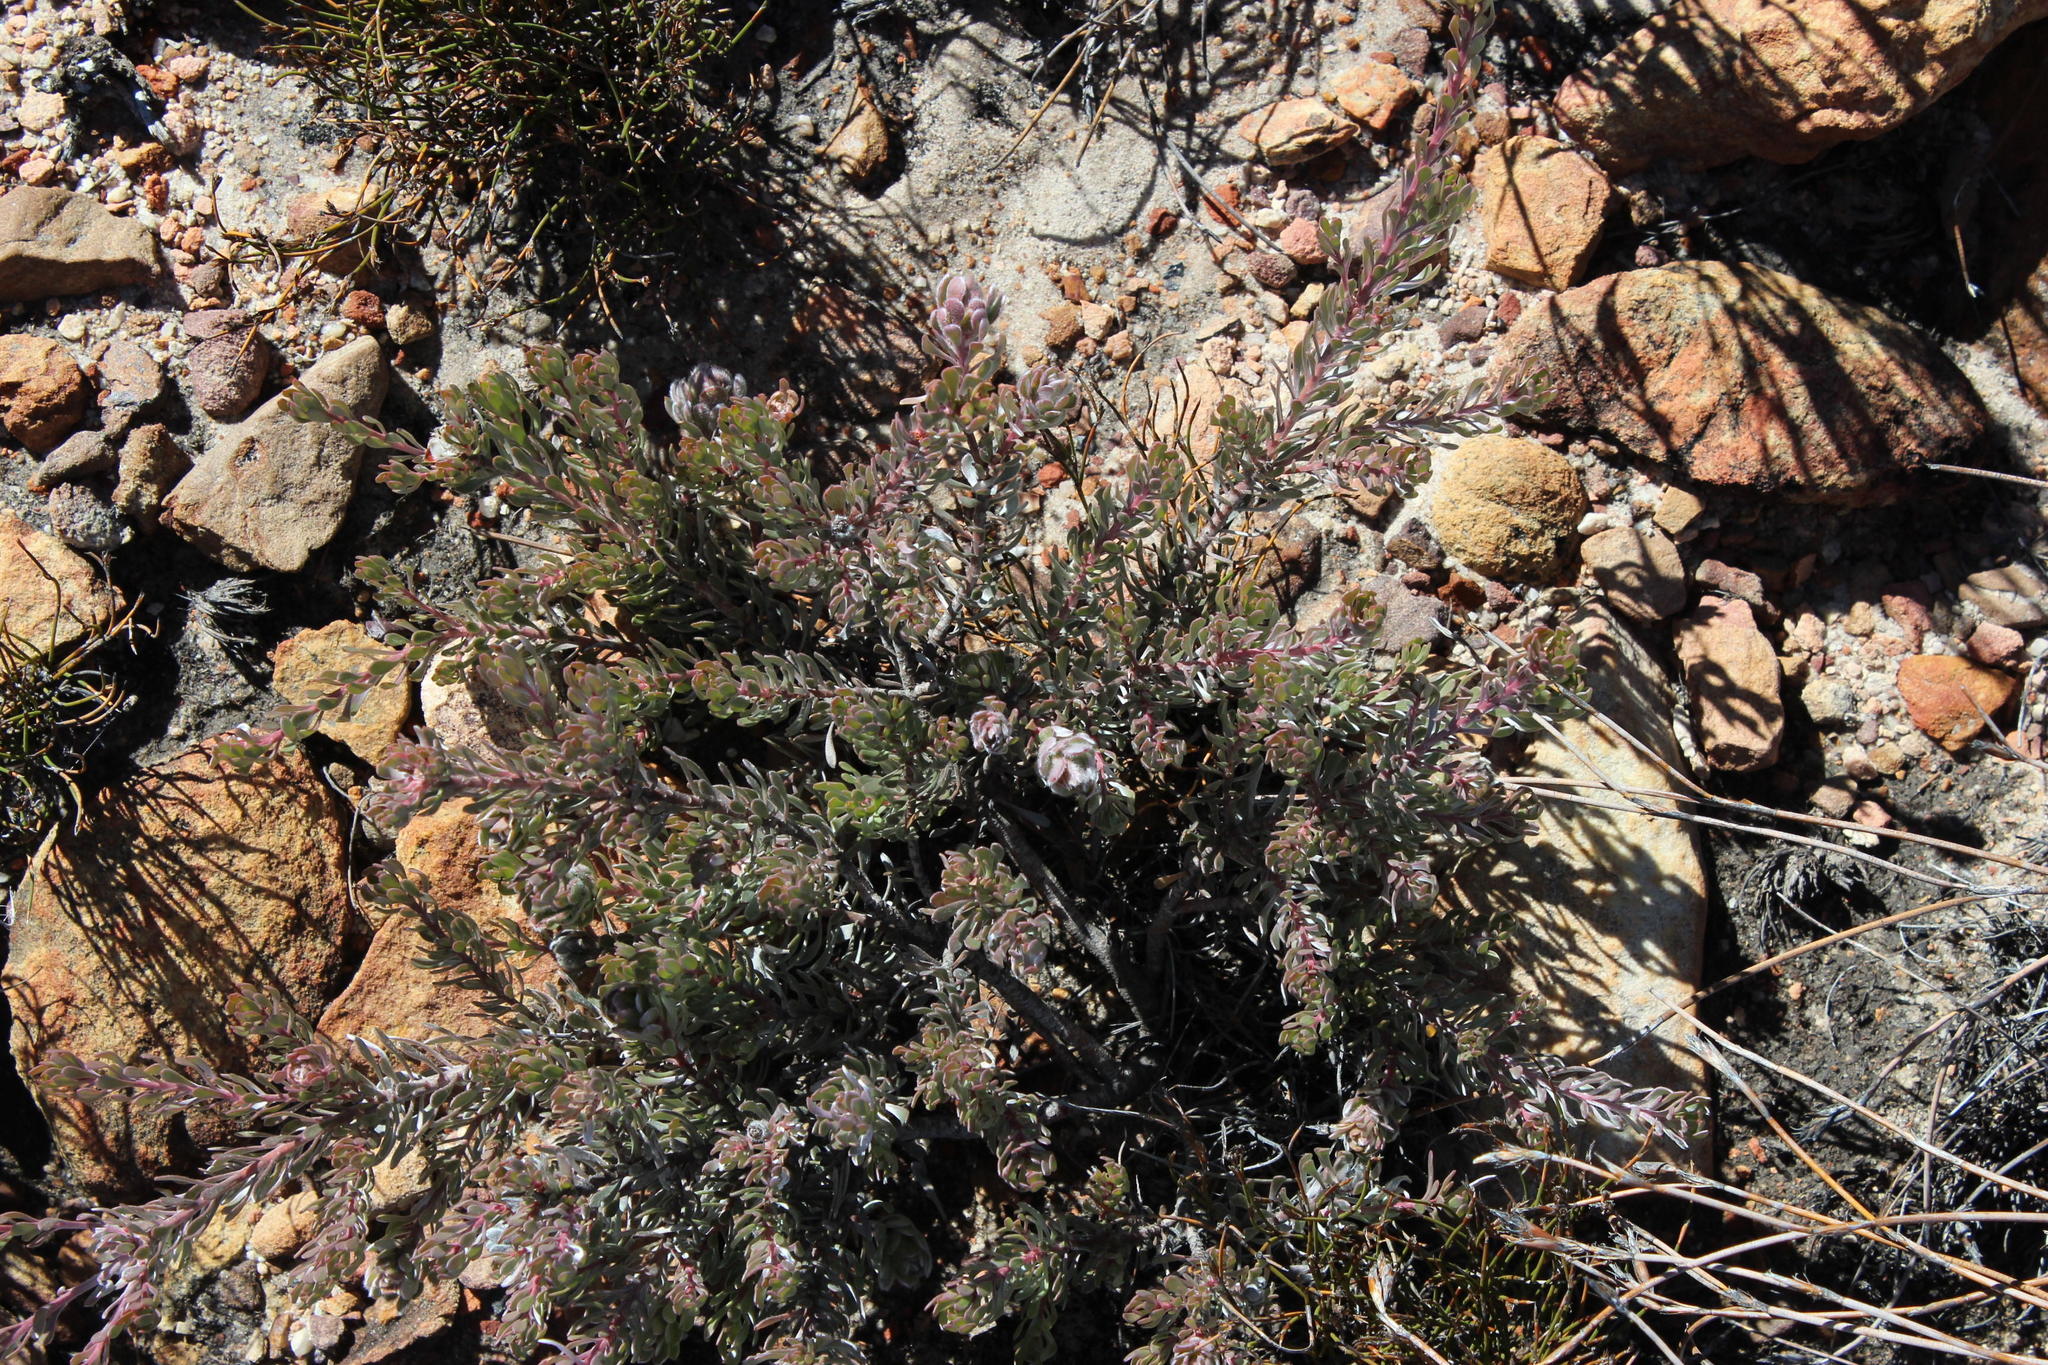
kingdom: Plantae
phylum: Tracheophyta
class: Magnoliopsida
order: Proteales
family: Proteaceae
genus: Leucadendron
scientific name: Leucadendron nitidum
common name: Bokkeveld conebush
